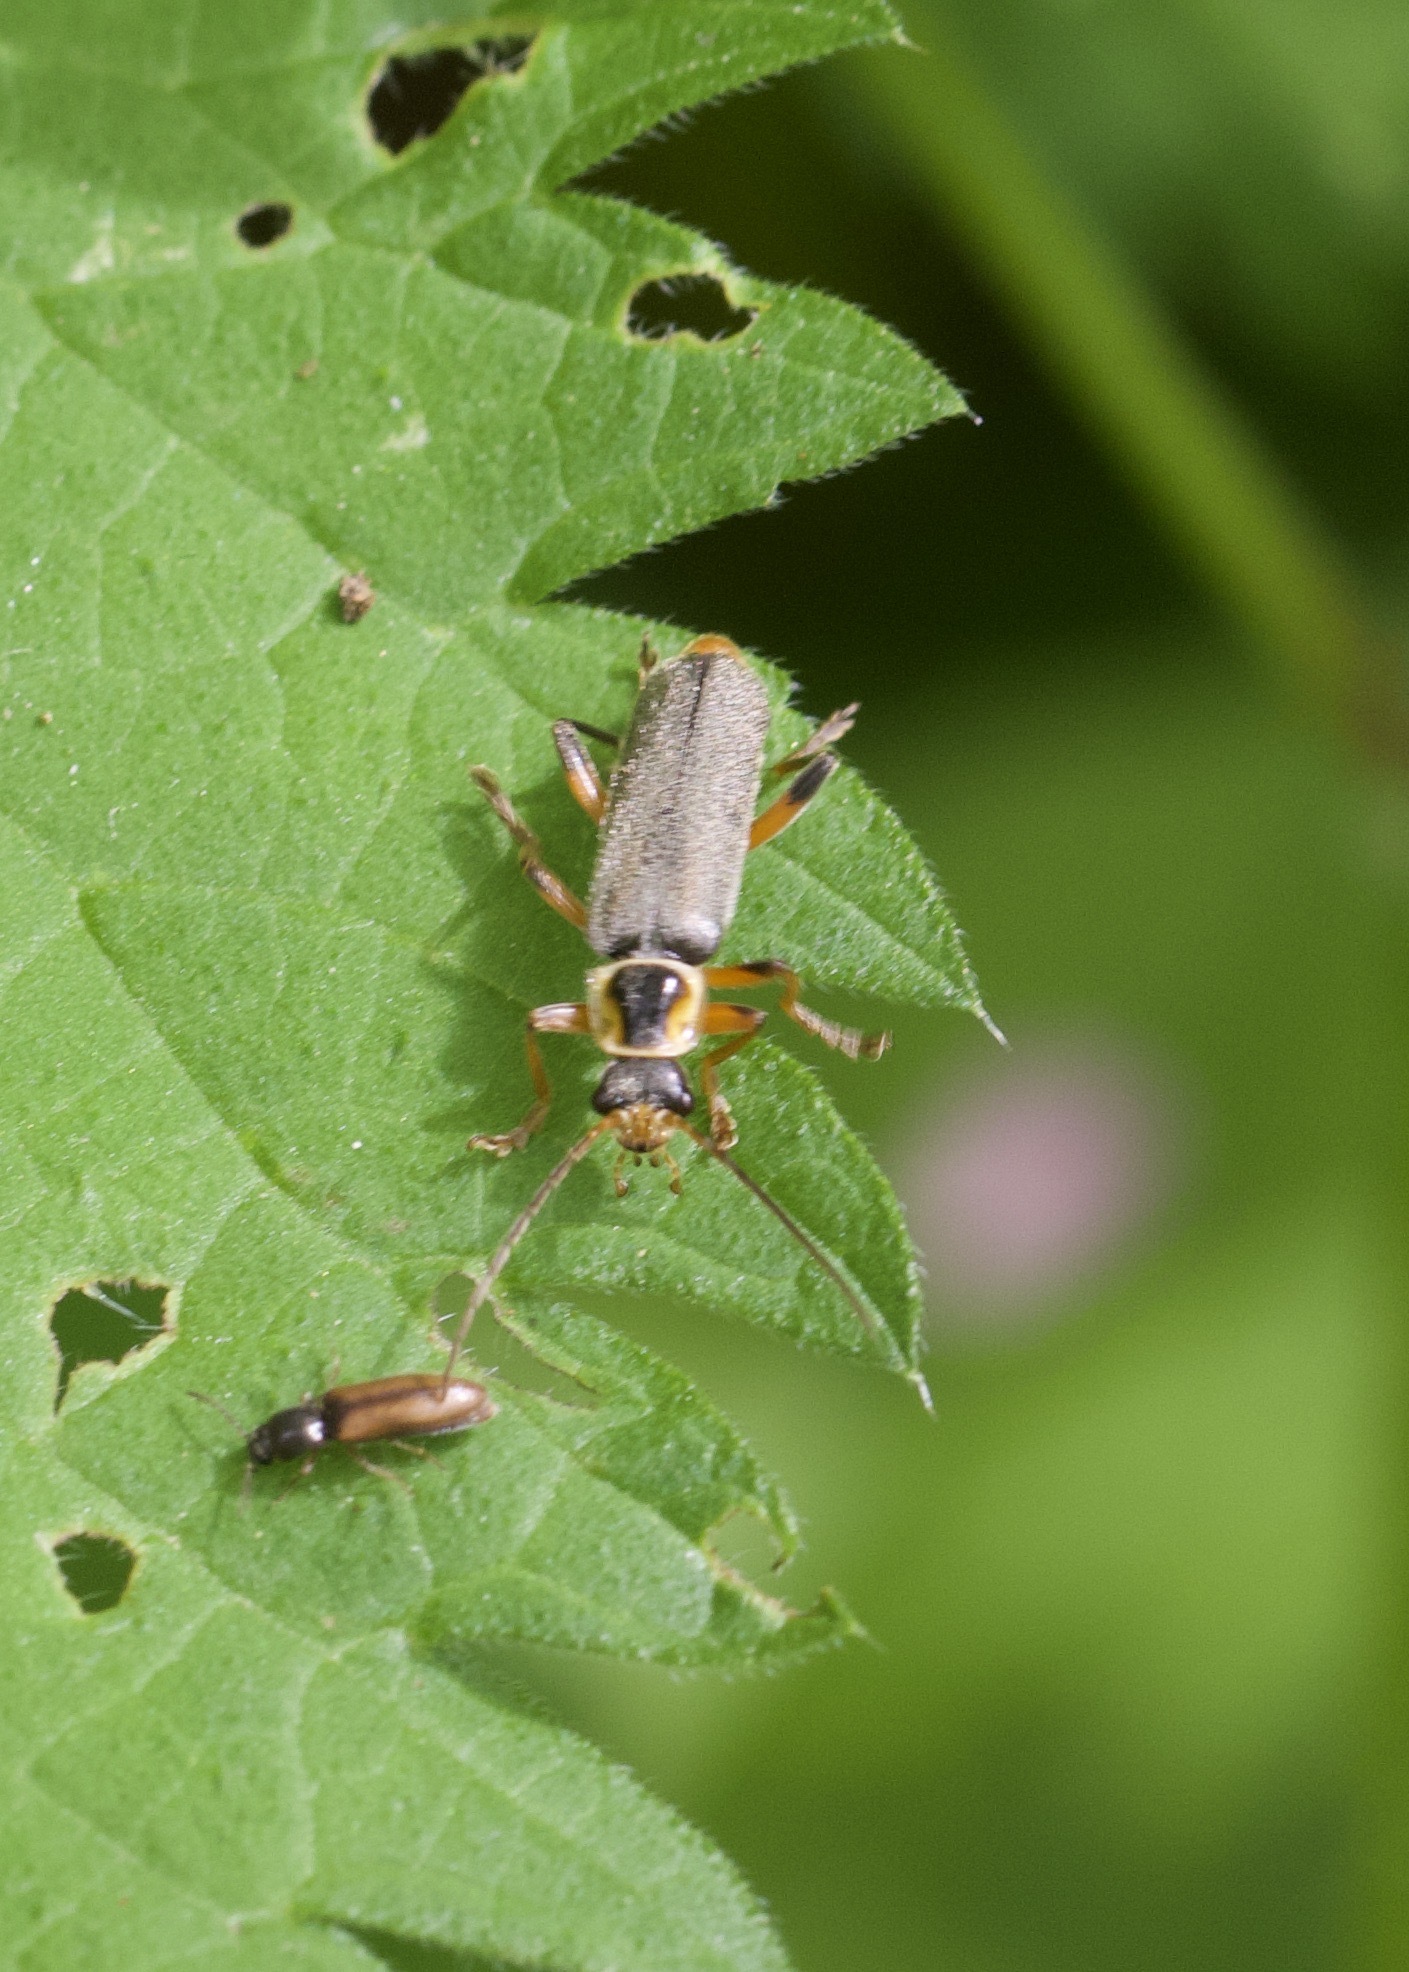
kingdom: Animalia
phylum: Arthropoda
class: Insecta
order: Coleoptera
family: Cantharidae
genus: Cantharis
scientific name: Cantharis nigricans
